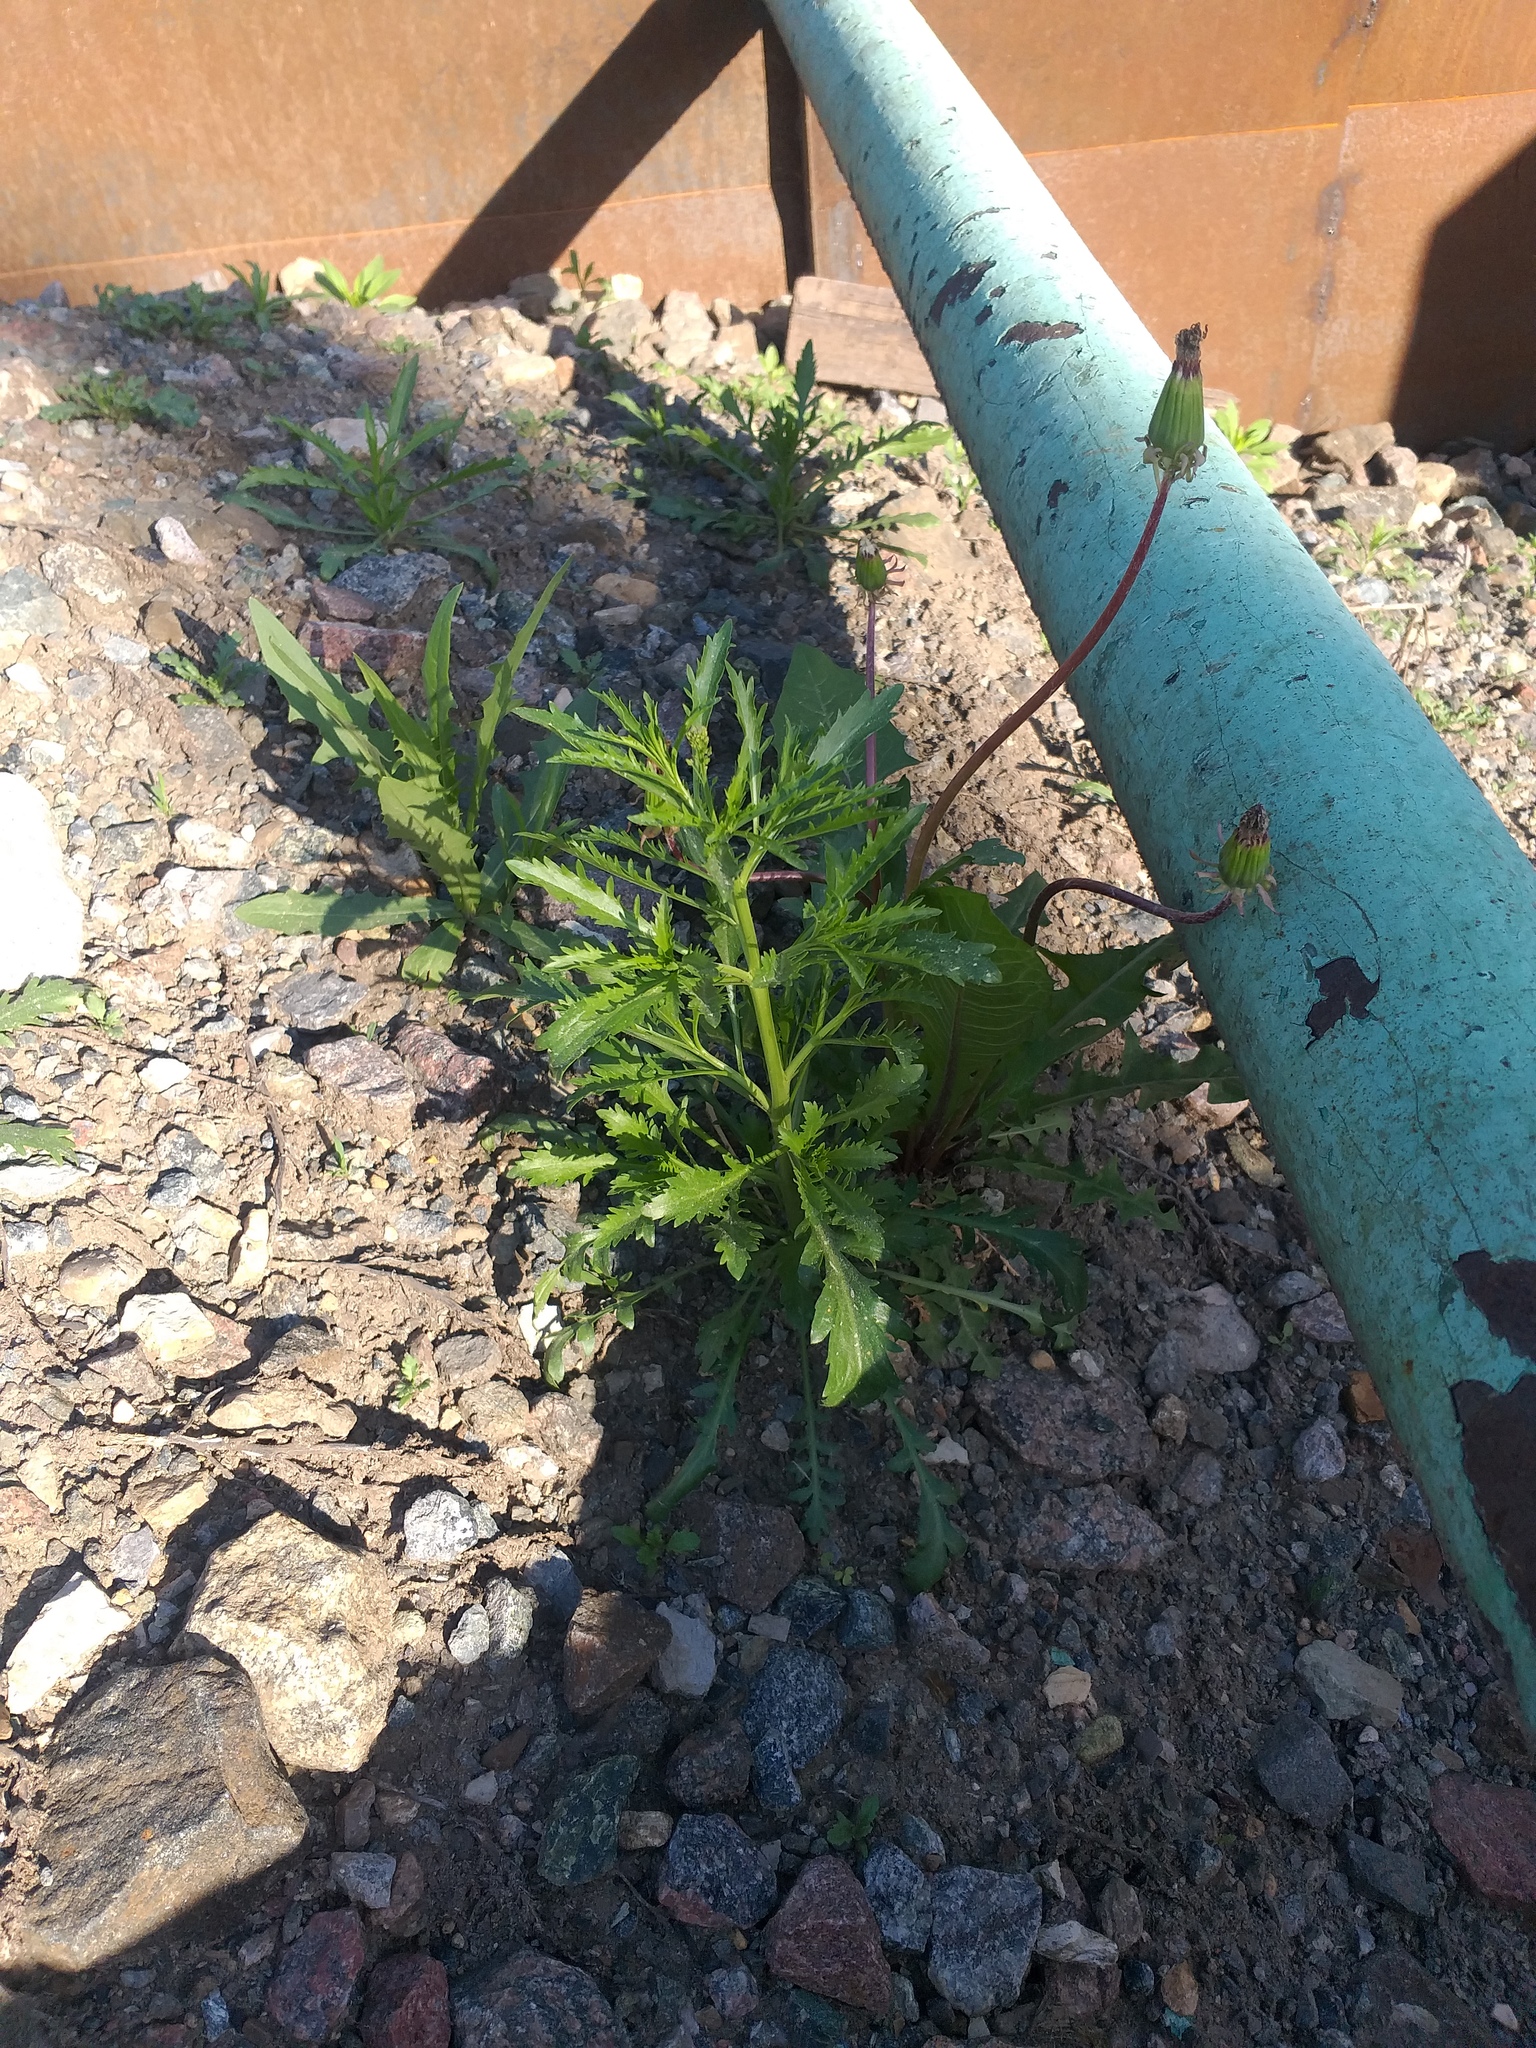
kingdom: Plantae
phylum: Tracheophyta
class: Magnoliopsida
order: Brassicales
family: Brassicaceae
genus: Lepidium
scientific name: Lepidium densiflorum
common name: Miner's pepperwort
